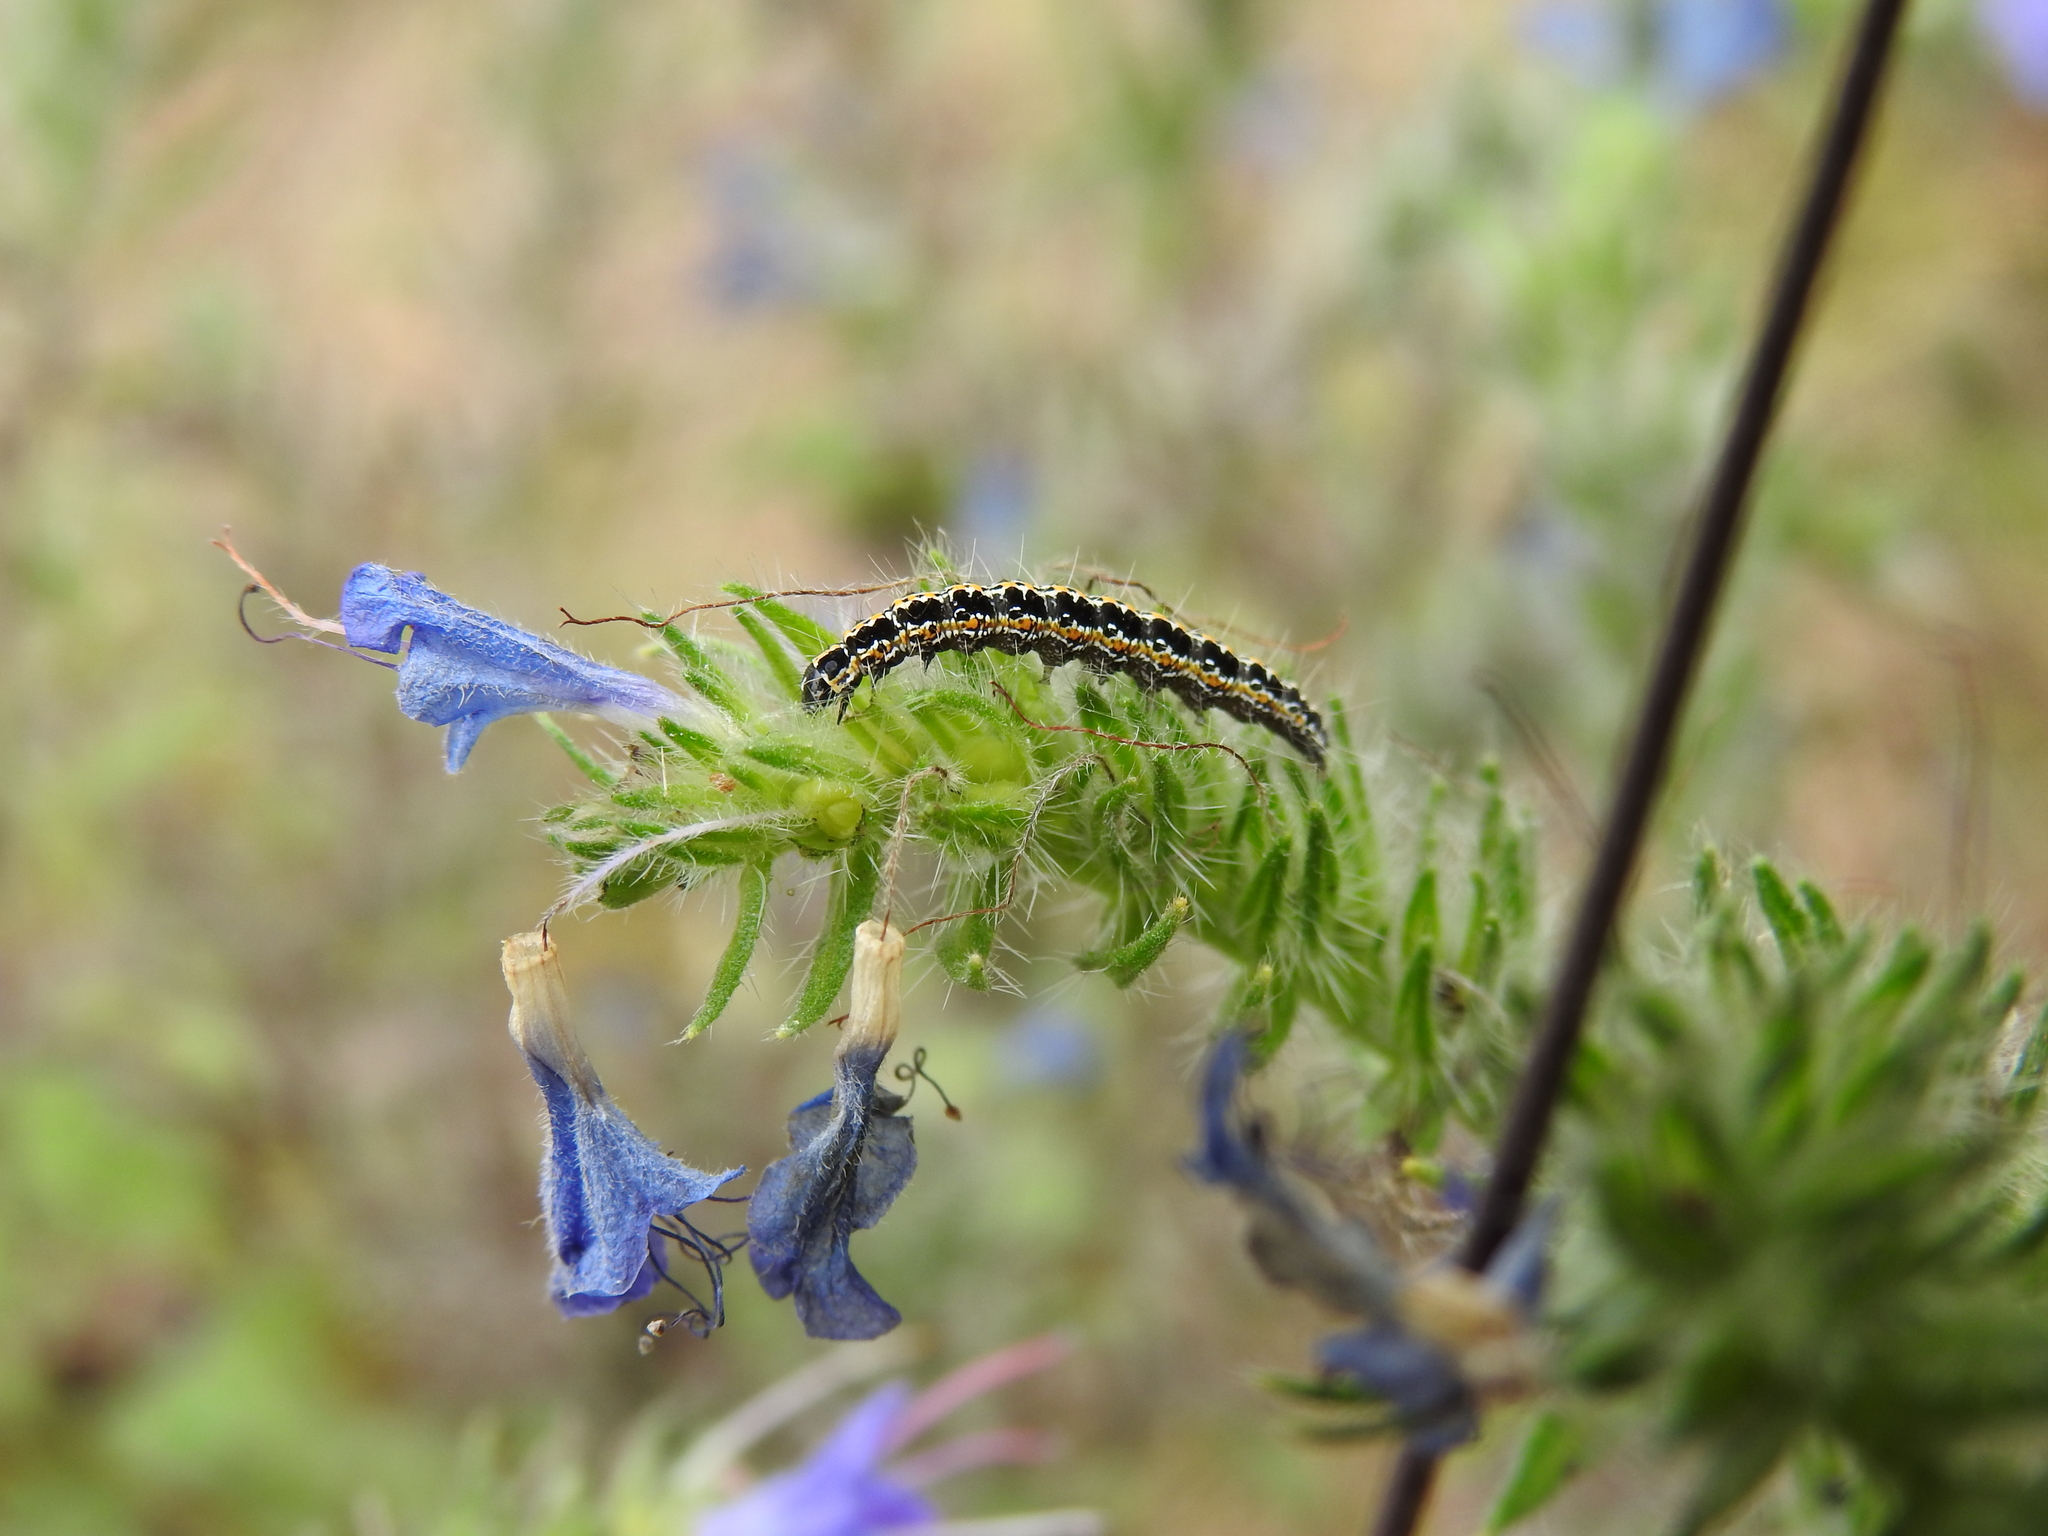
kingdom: Animalia
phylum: Arthropoda
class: Insecta
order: Lepidoptera
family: Ethmiidae
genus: Ethmia
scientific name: Ethmia bipunctella
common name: Bordered ermel
